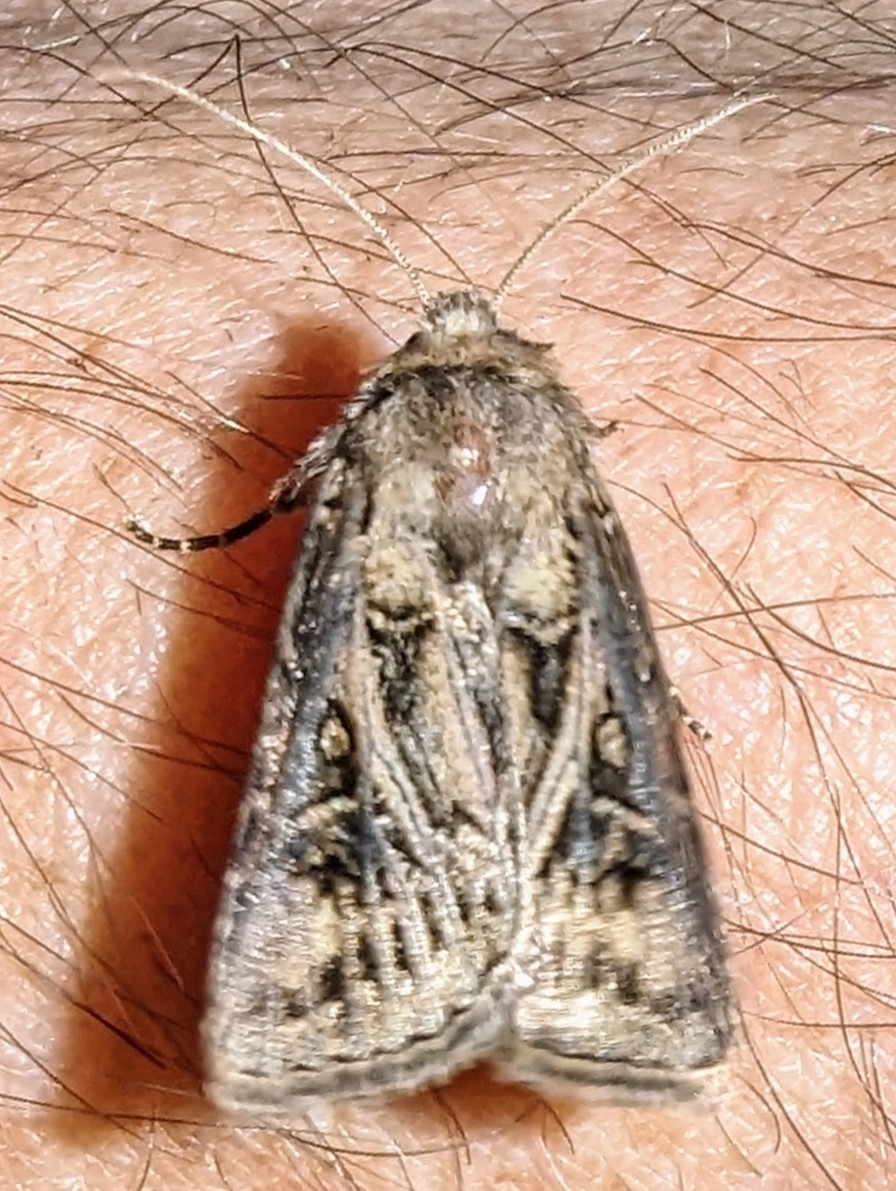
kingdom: Animalia
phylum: Arthropoda
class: Insecta
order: Lepidoptera
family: Noctuidae
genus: Agrotis
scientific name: Agrotis gladiaria
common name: Claybacked cutworm
